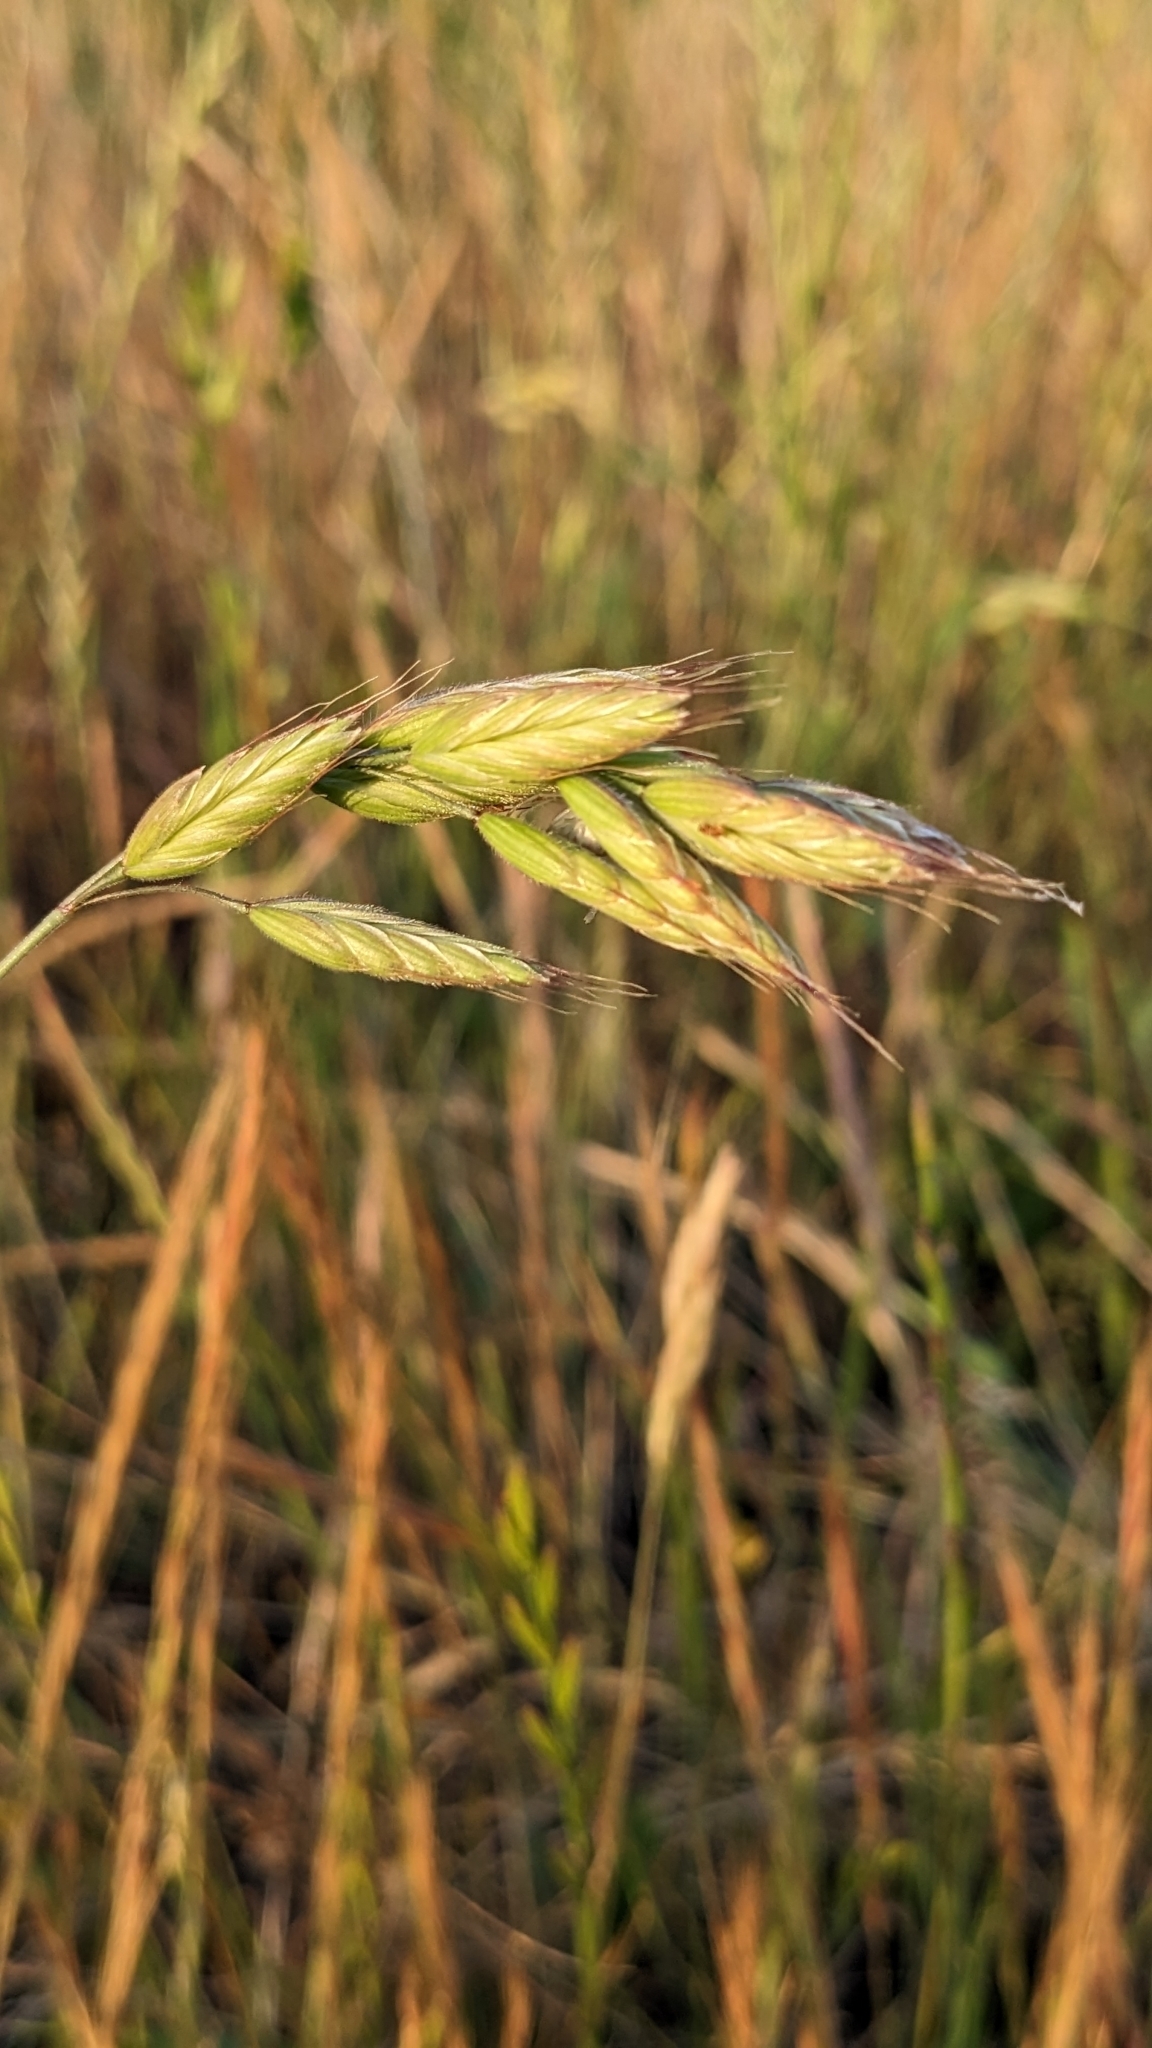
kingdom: Plantae
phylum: Tracheophyta
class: Liliopsida
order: Poales
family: Poaceae
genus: Bromus
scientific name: Bromus hordeaceus
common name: Soft brome
